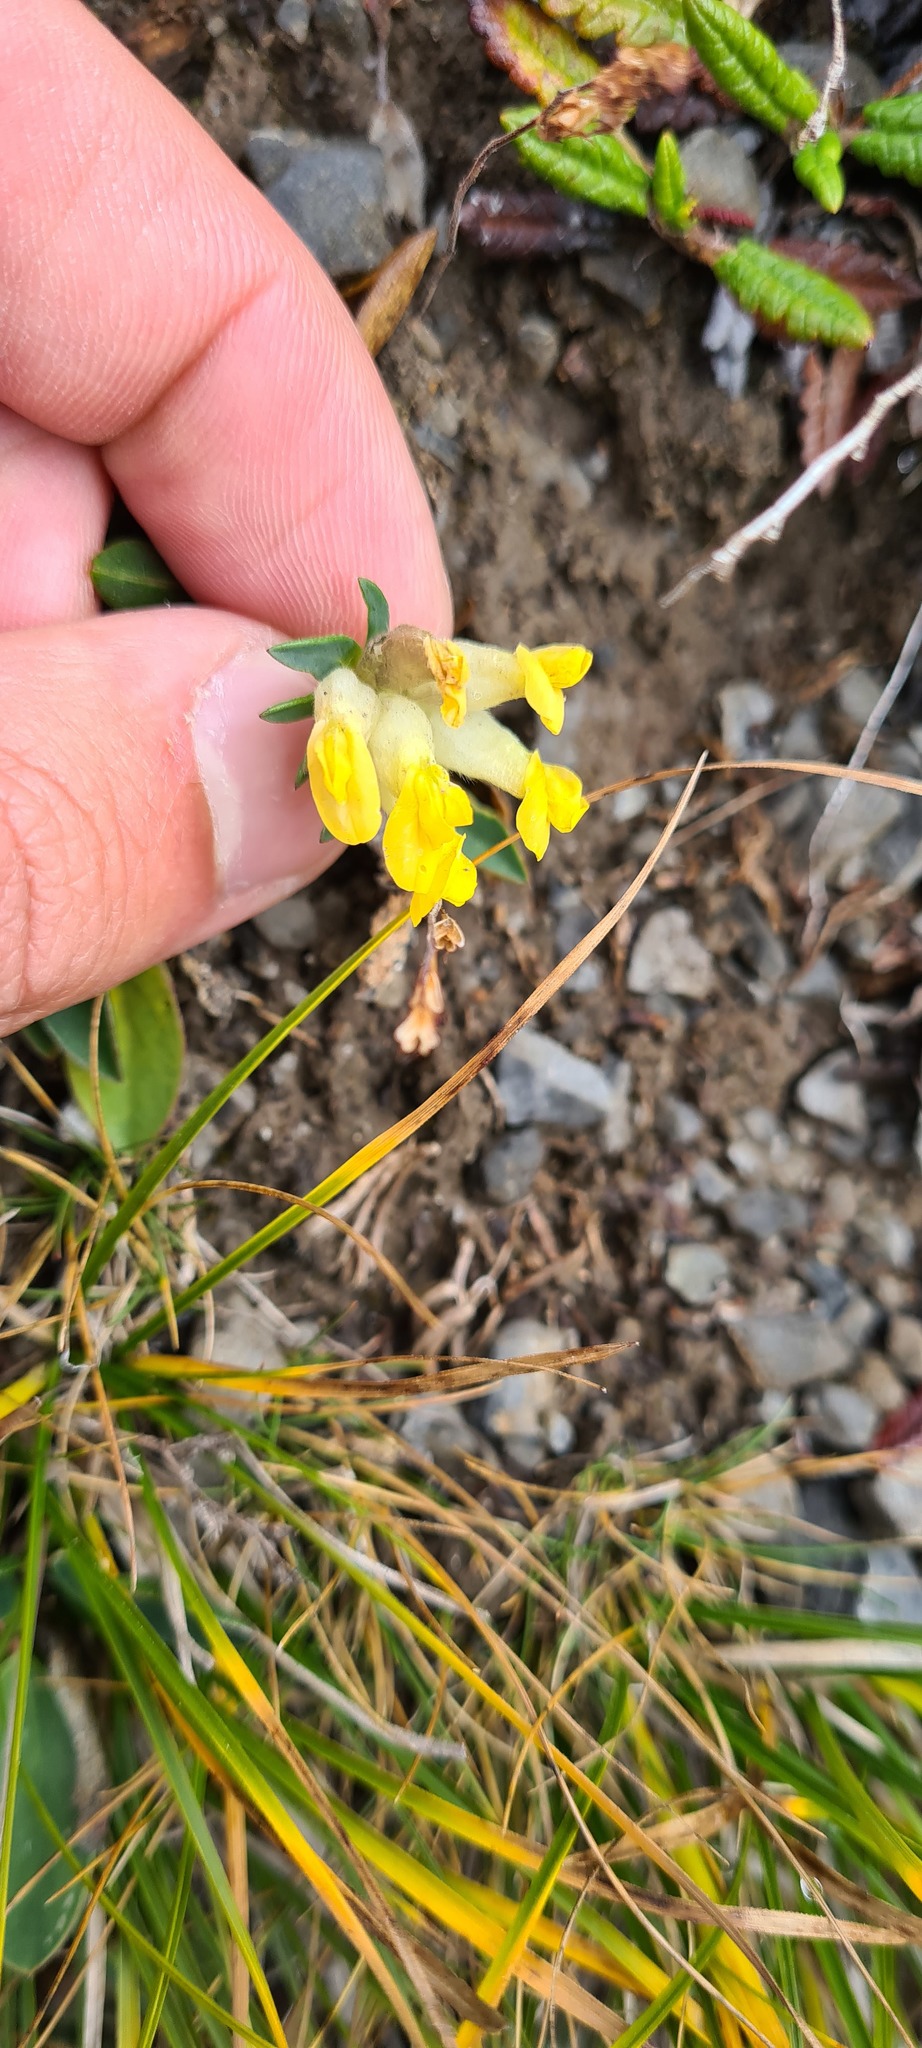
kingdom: Plantae
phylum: Tracheophyta
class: Magnoliopsida
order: Fabales
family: Fabaceae
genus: Anthyllis
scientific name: Anthyllis vulneraria
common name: Kidney vetch
